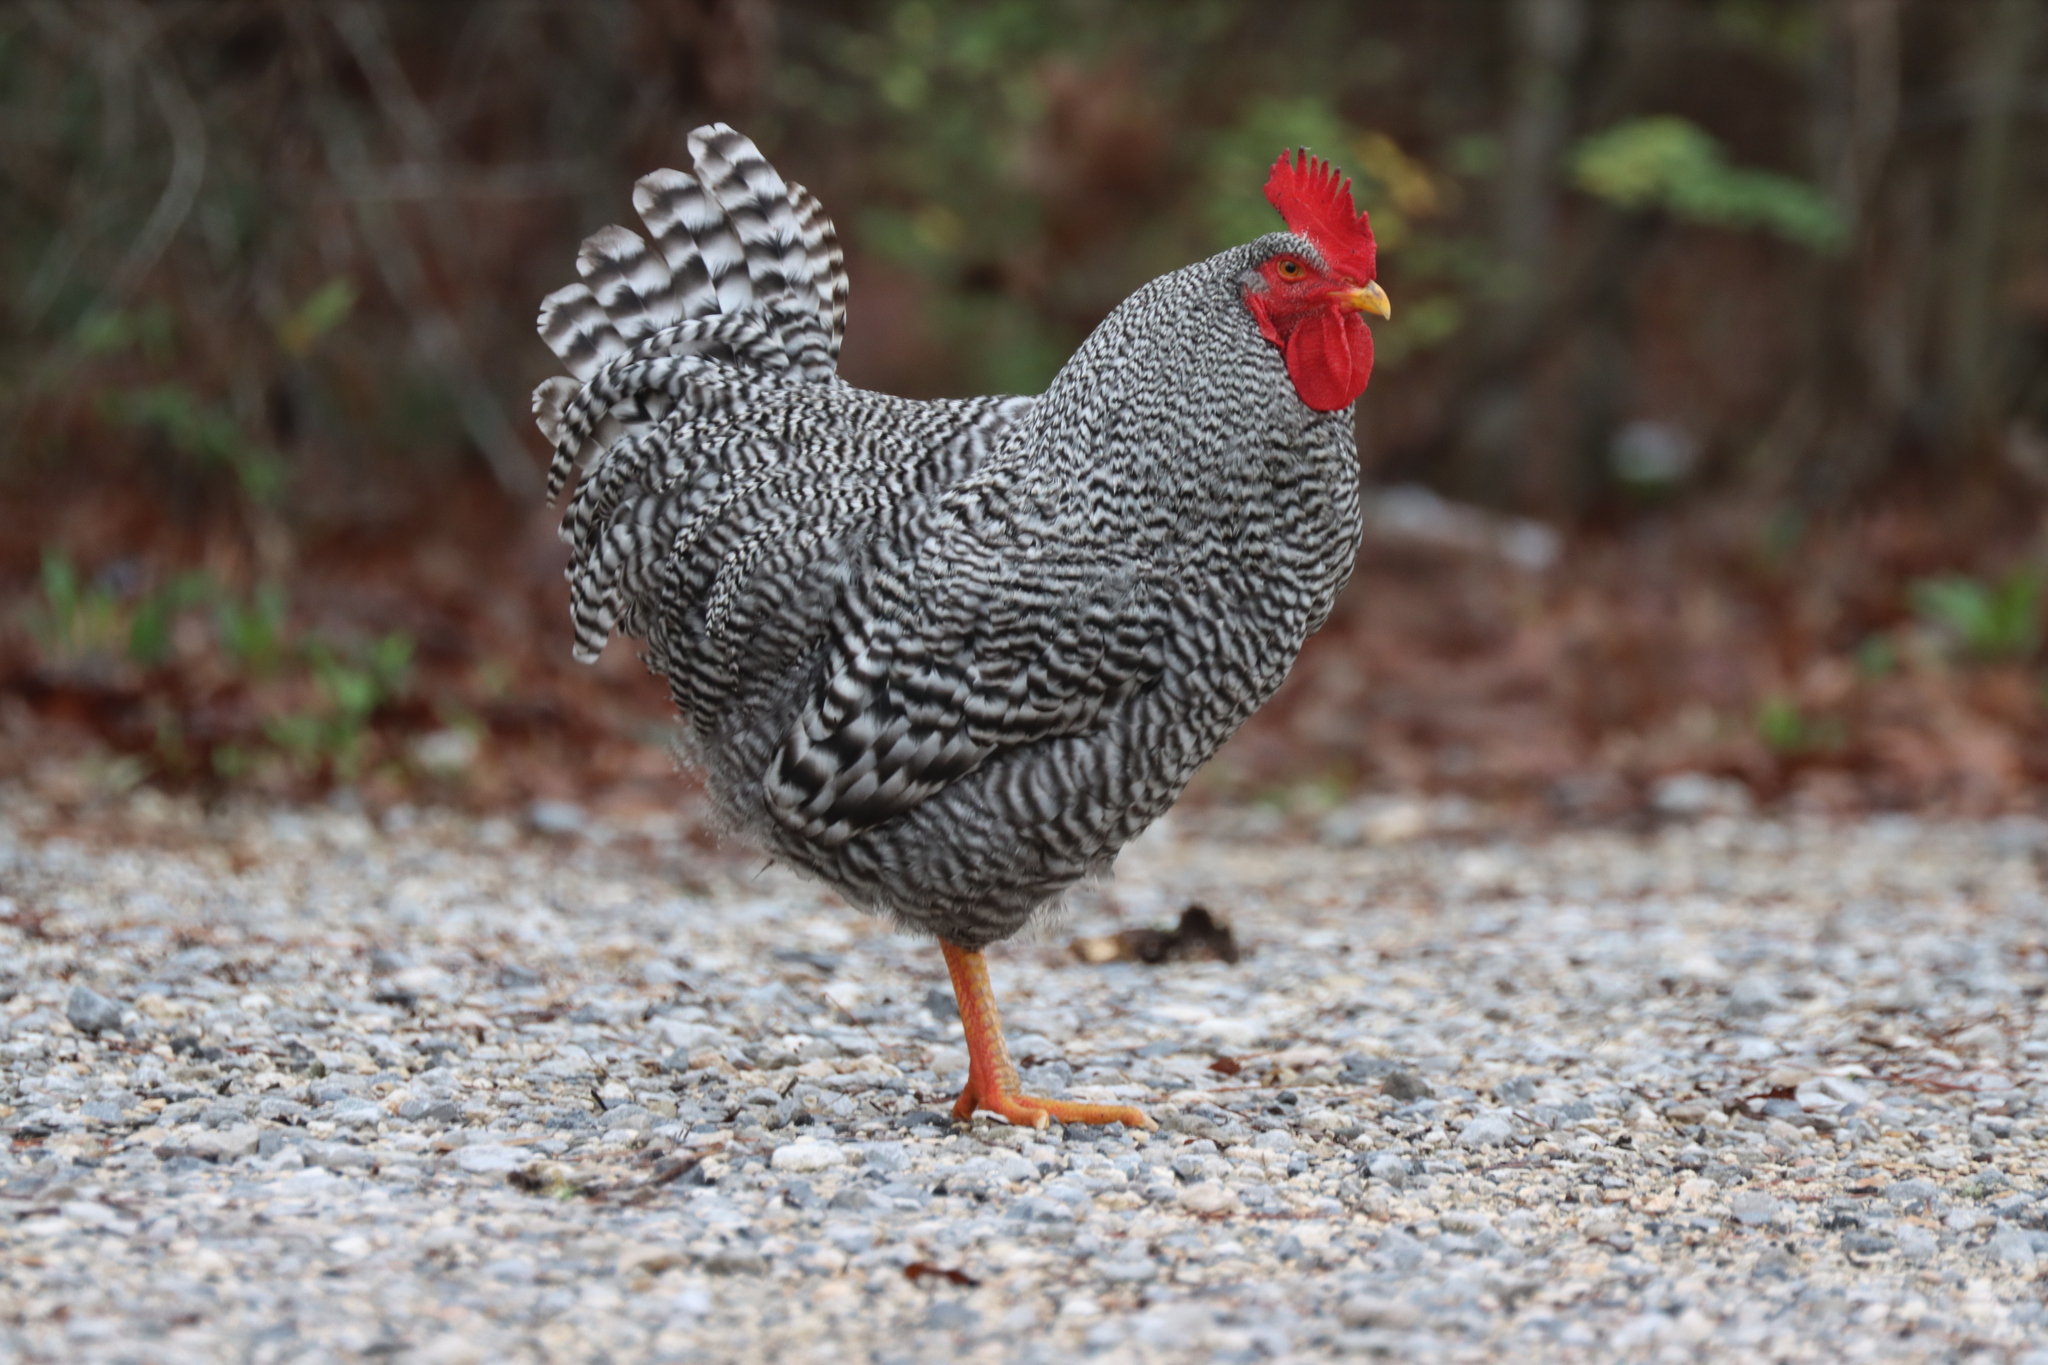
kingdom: Animalia
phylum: Chordata
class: Aves
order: Galliformes
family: Phasianidae
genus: Gallus
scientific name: Gallus gallus
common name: Red junglefowl
